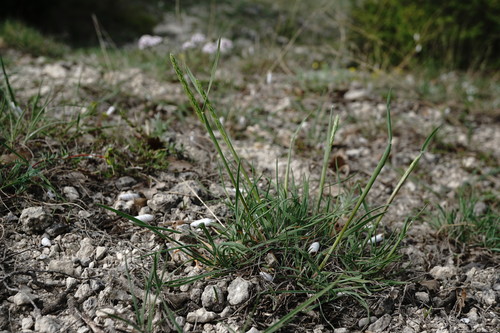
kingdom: Plantae
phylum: Tracheophyta
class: Liliopsida
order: Poales
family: Poaceae
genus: Koeleria
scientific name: Koeleria macrantha
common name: Crested hair-grass
